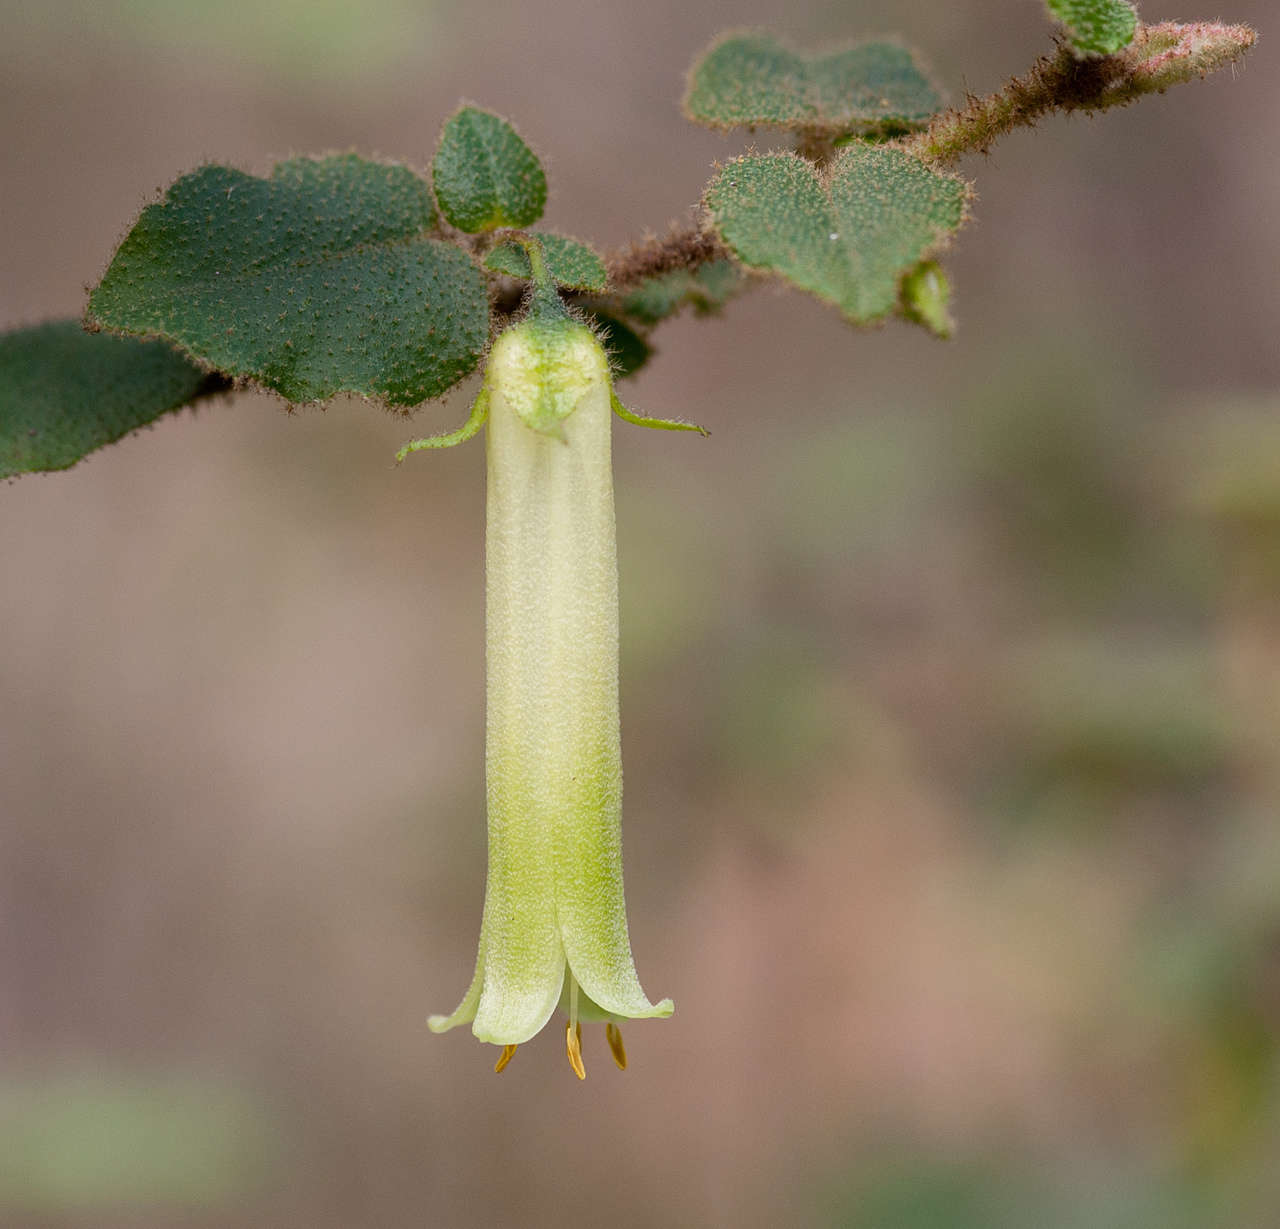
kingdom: Plantae
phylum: Tracheophyta
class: Magnoliopsida
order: Sapindales
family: Rutaceae
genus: Correa
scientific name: Correa aemula
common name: Hairy correa
